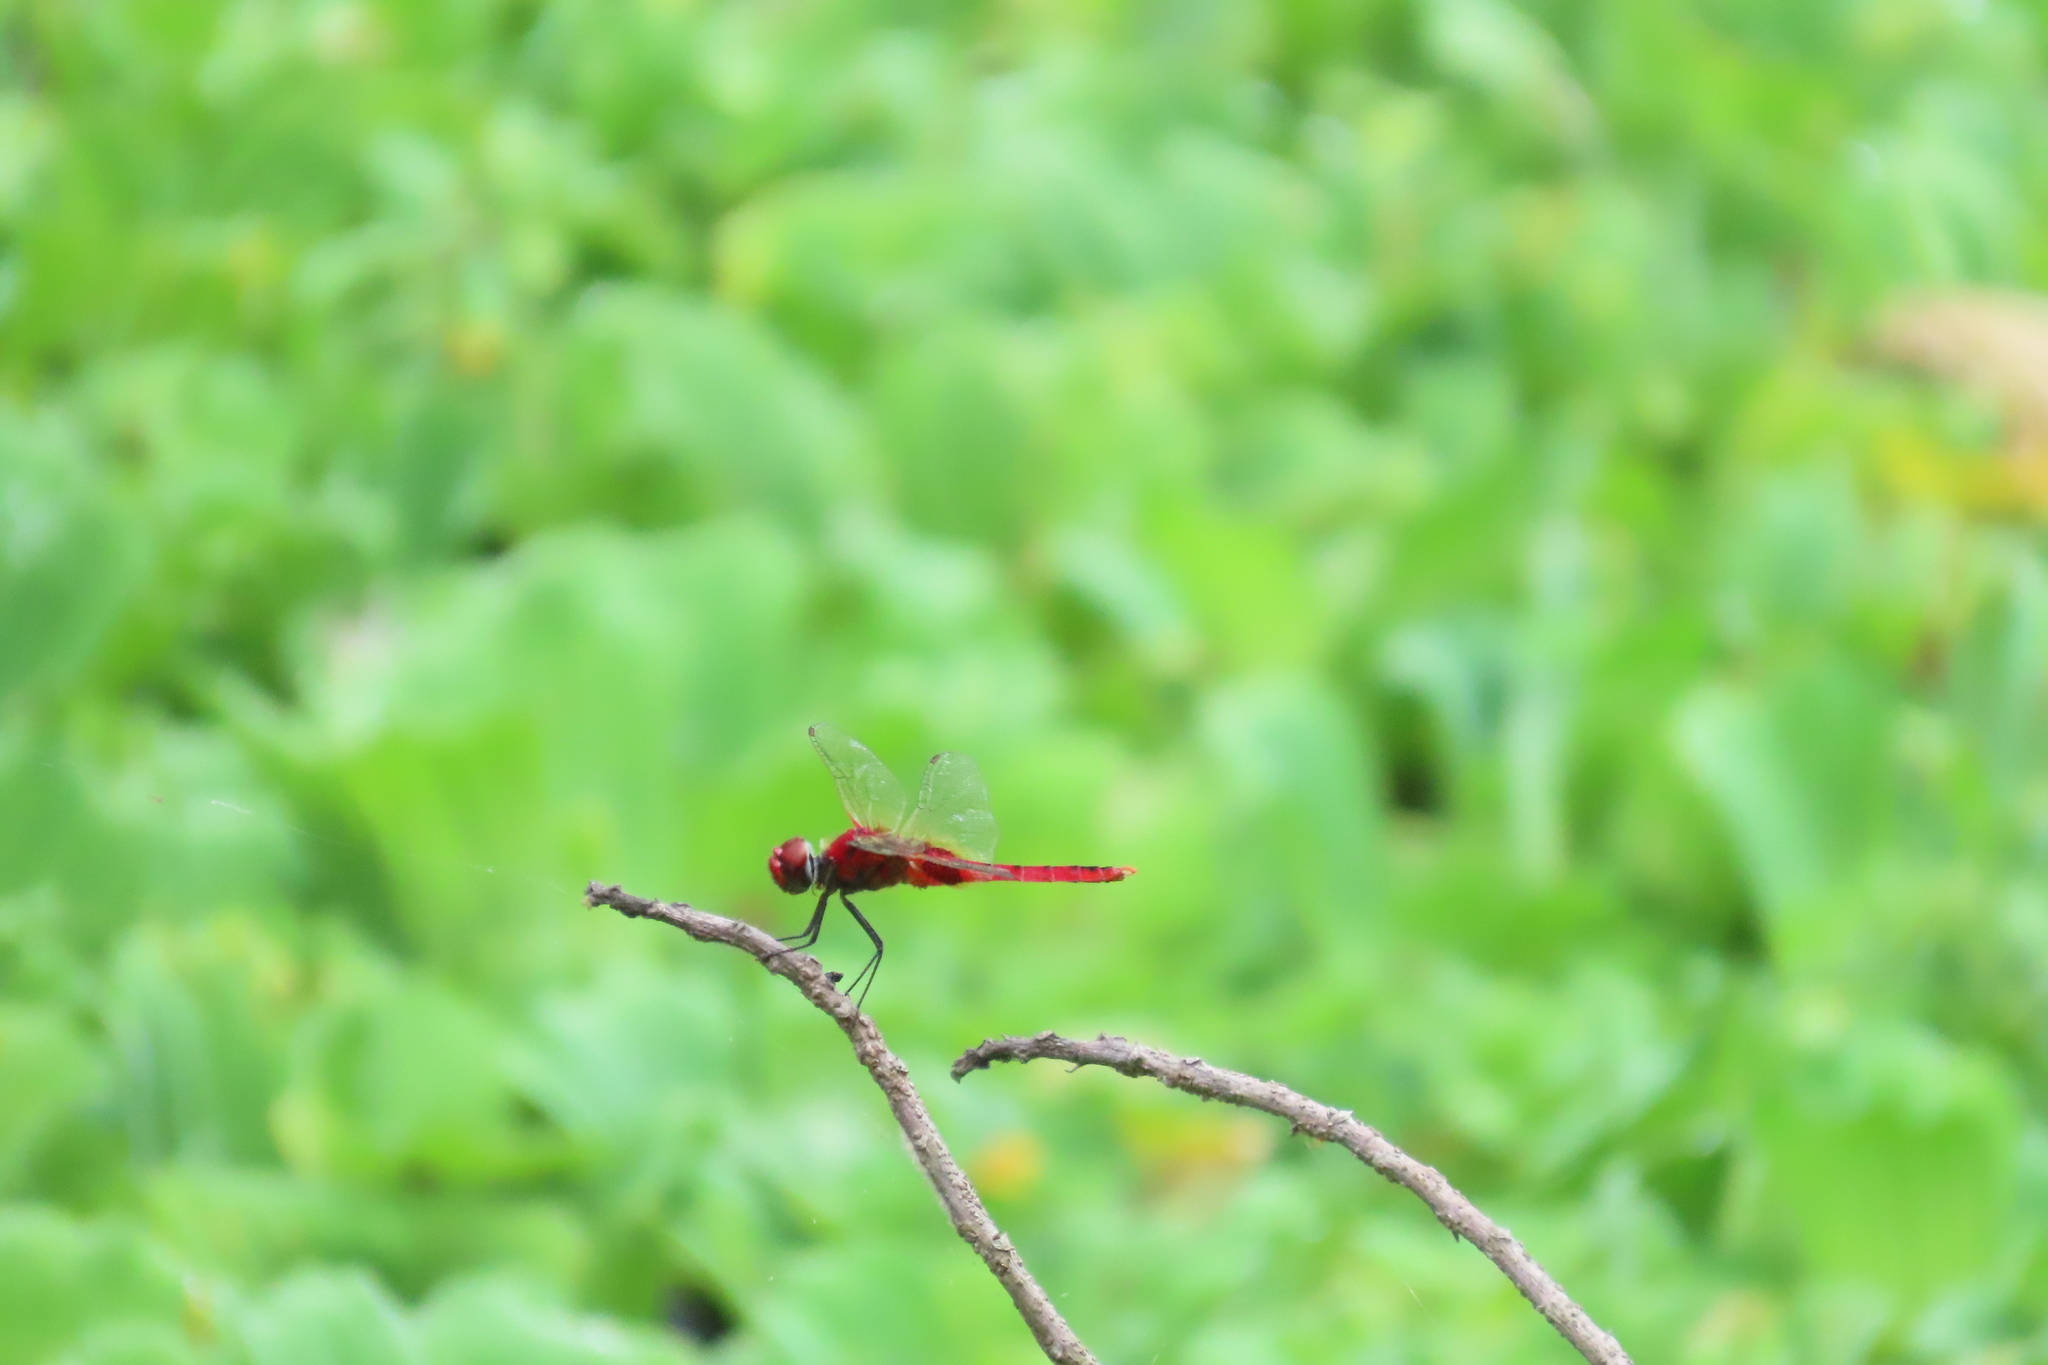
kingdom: Animalia
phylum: Arthropoda
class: Insecta
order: Odonata
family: Libellulidae
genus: Urothemis
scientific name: Urothemis signata
